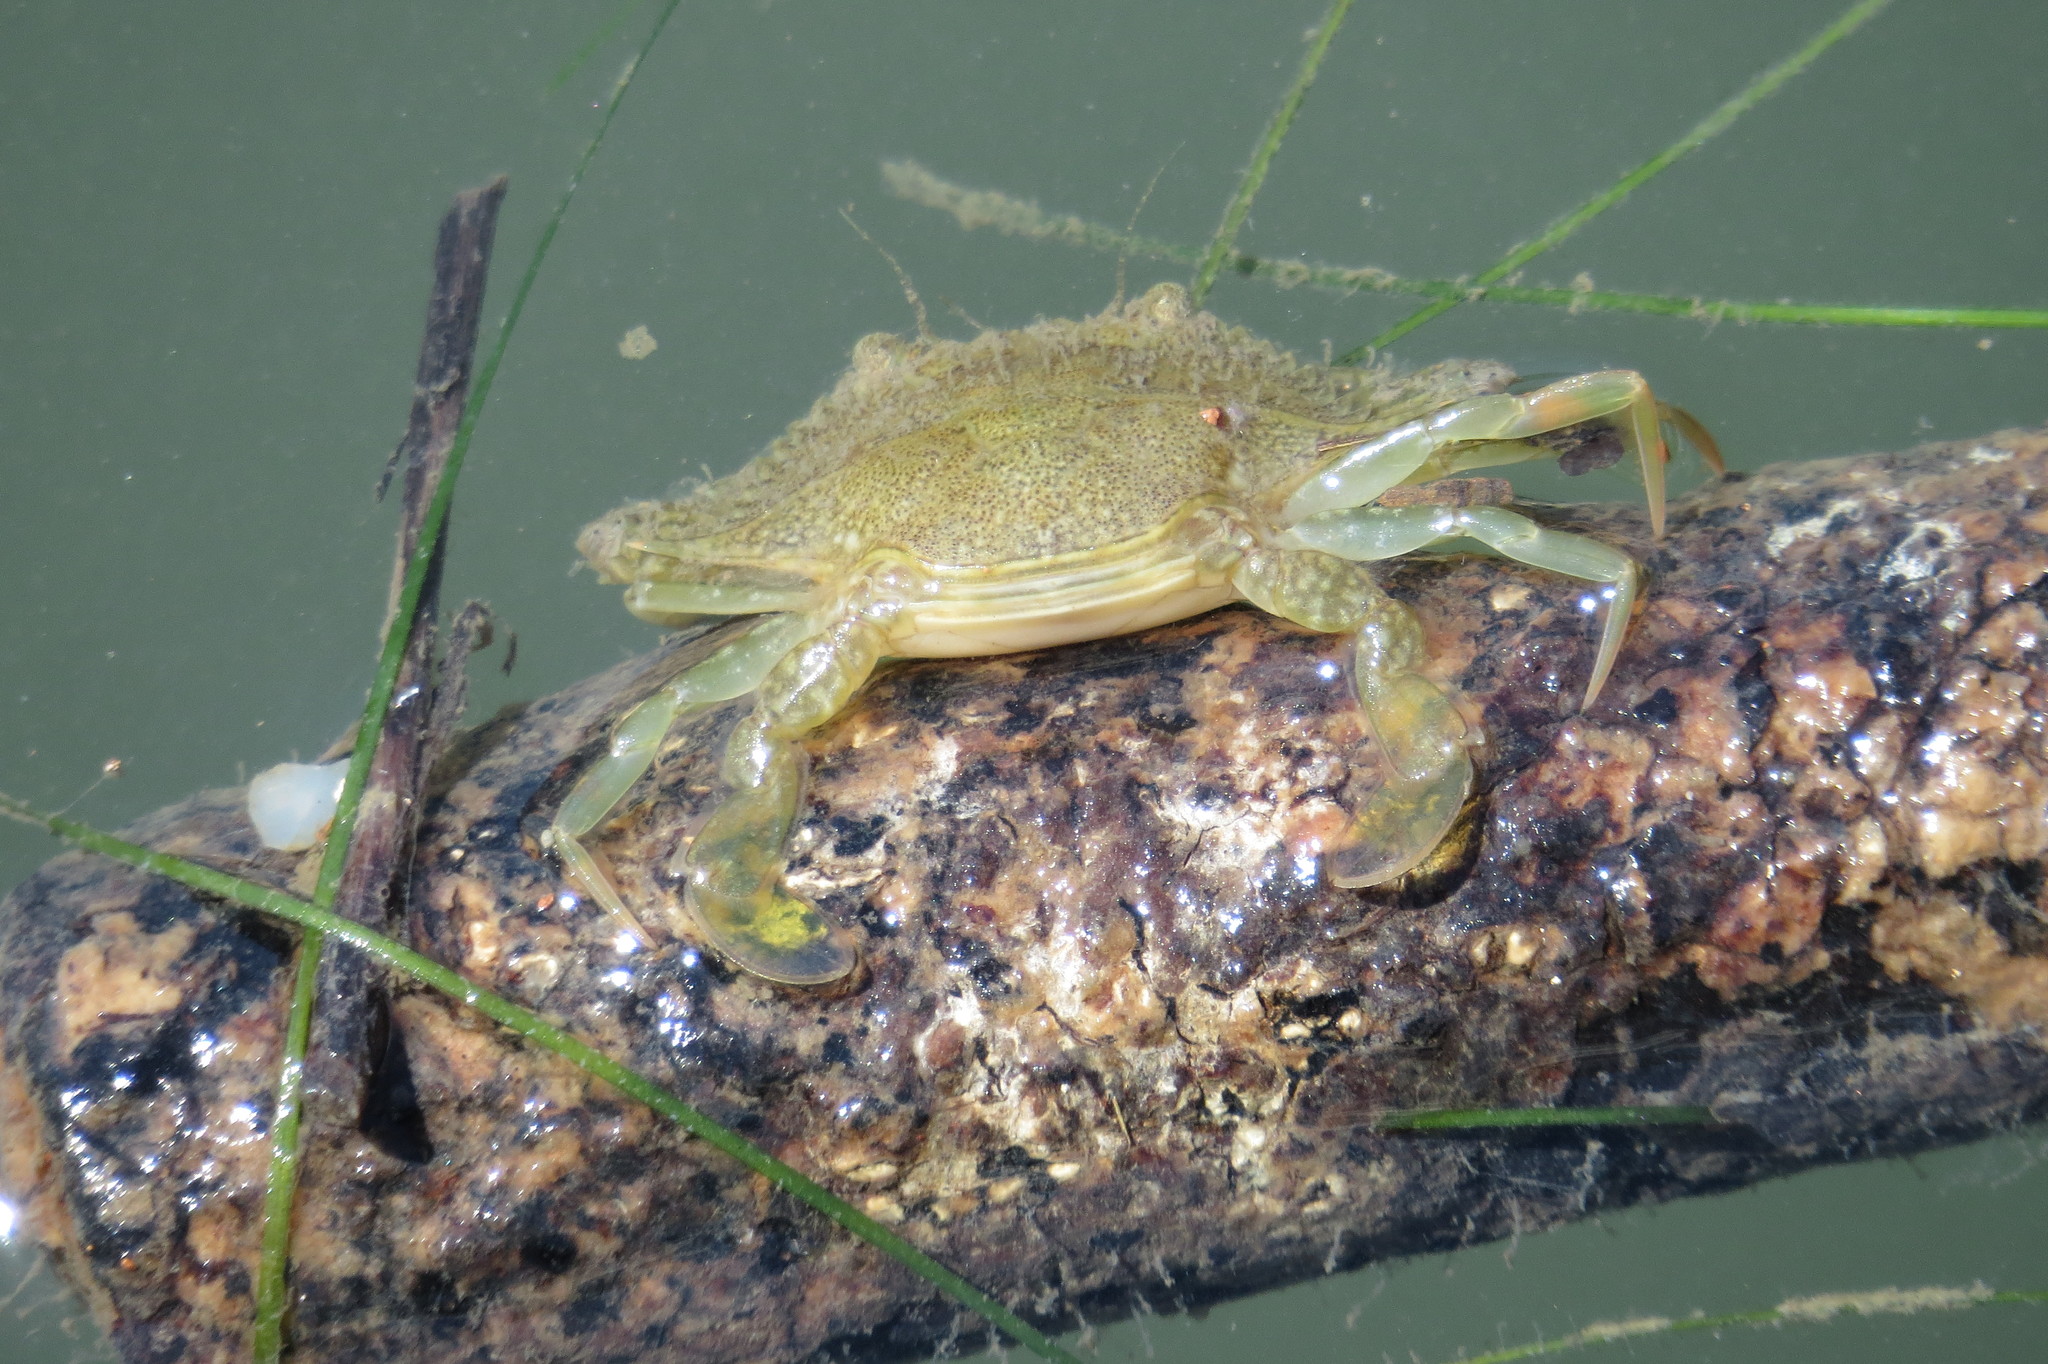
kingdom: Animalia
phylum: Arthropoda
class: Malacostraca
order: Decapoda
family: Portunidae
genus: Portunus
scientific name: Portunus armatus
